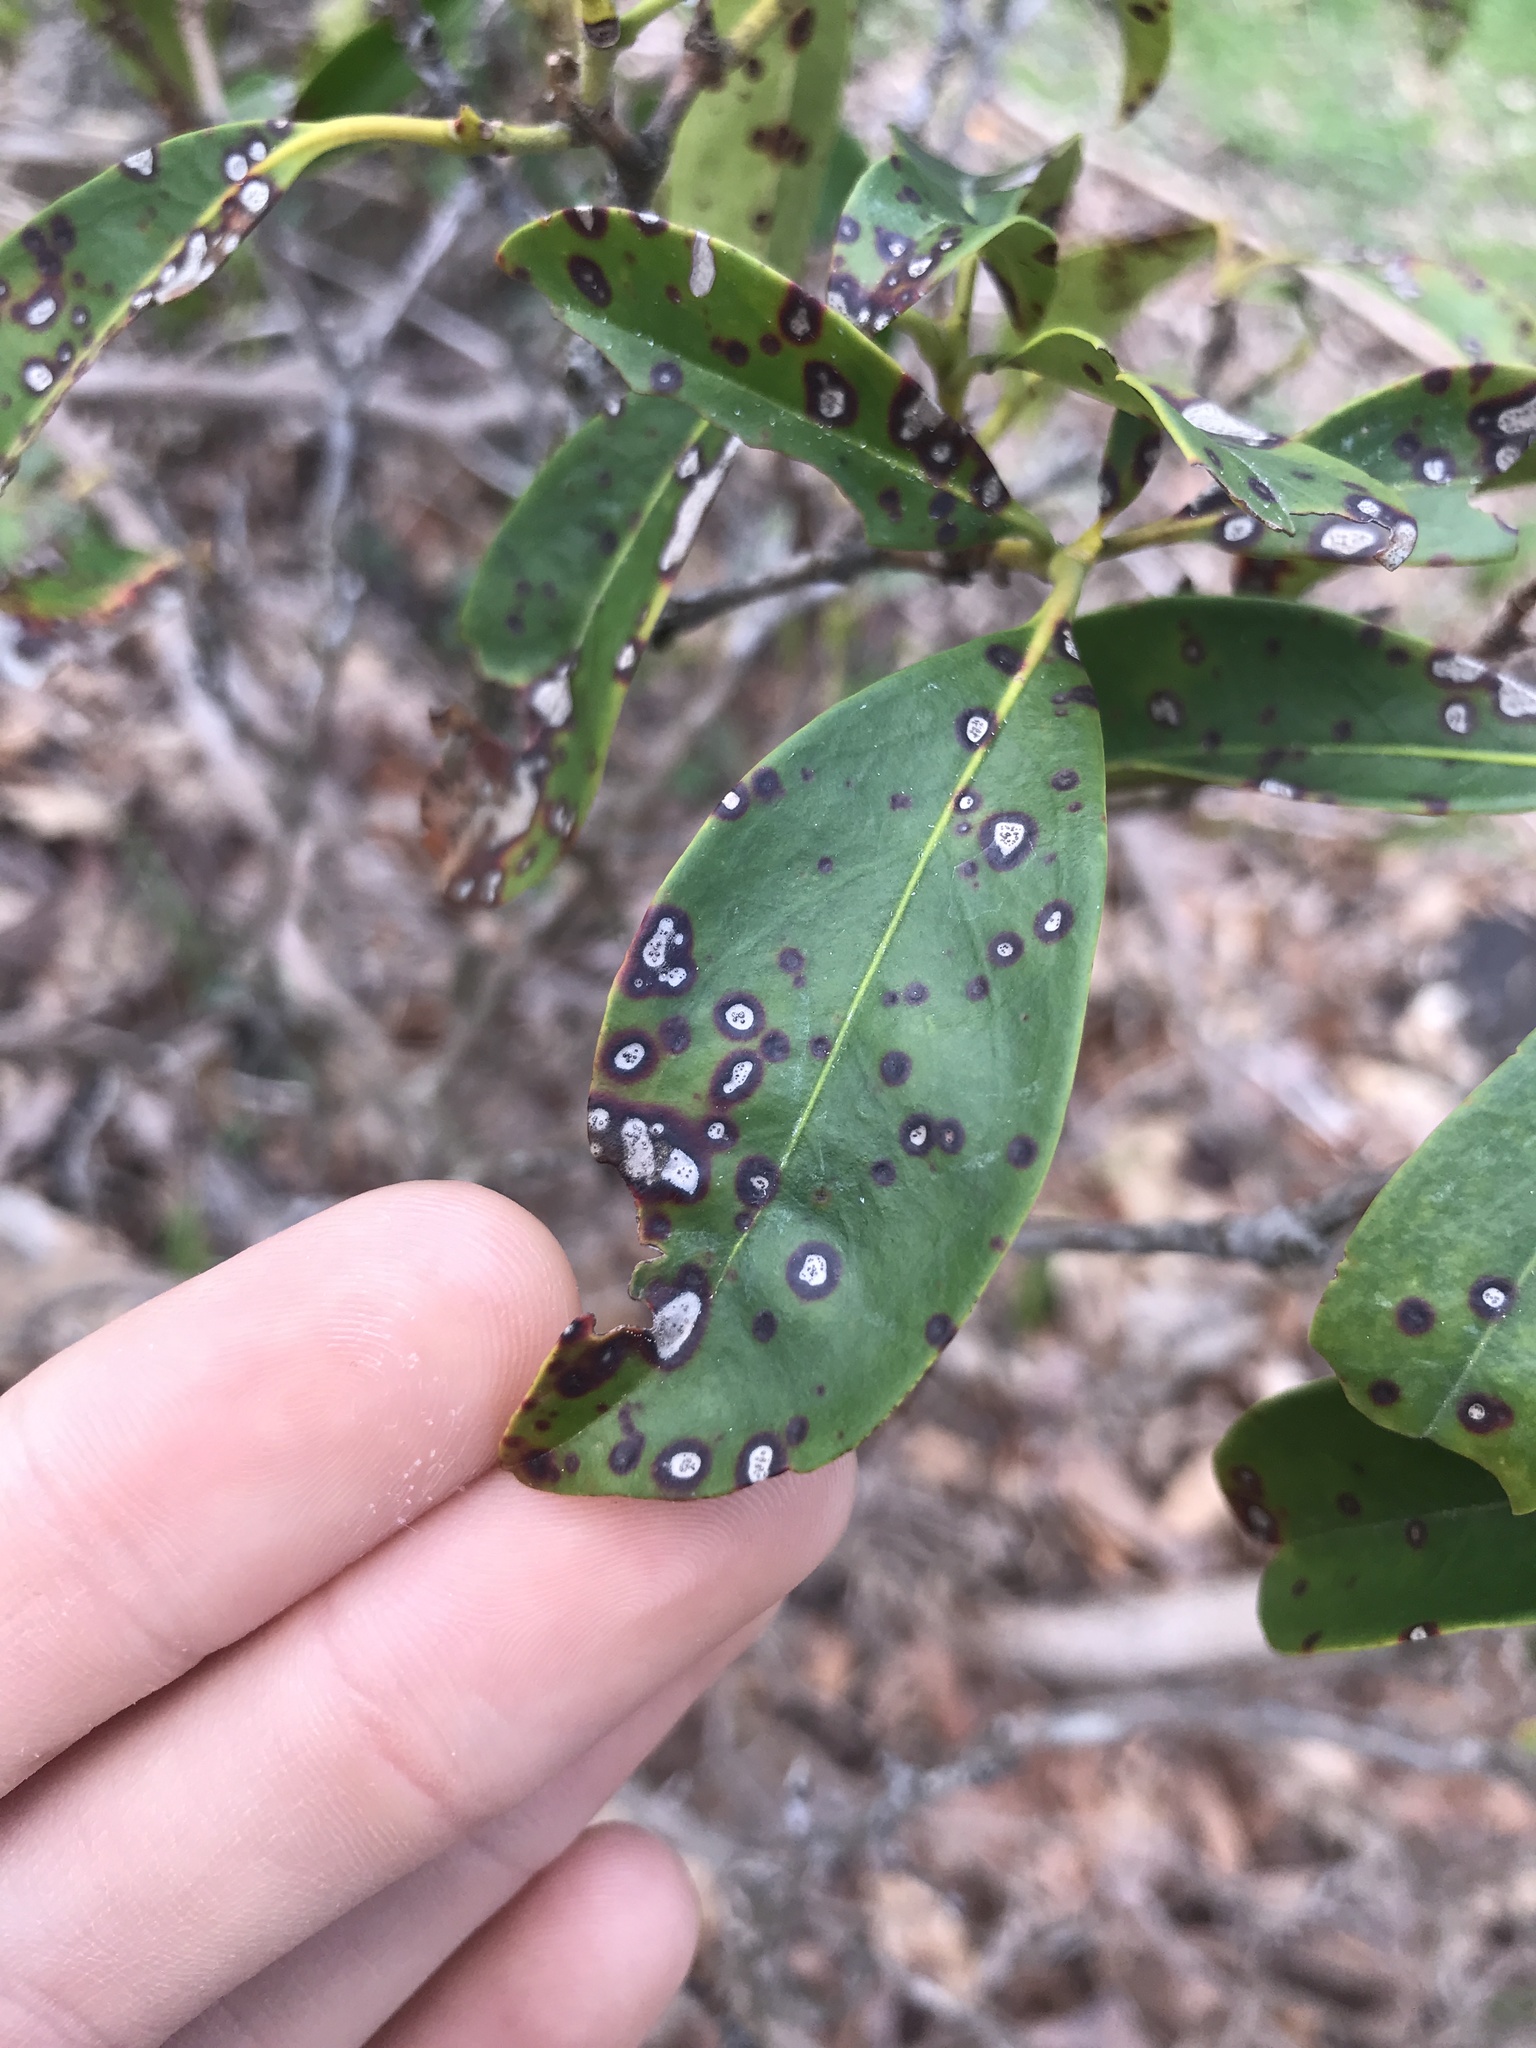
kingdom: Fungi
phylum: Ascomycota
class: Dothideomycetes
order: Mycosphaerellales
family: Mycosphaerellaceae
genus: Mycosphaerella
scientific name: Mycosphaerella colorata
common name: Mountain laurel leaf spot
